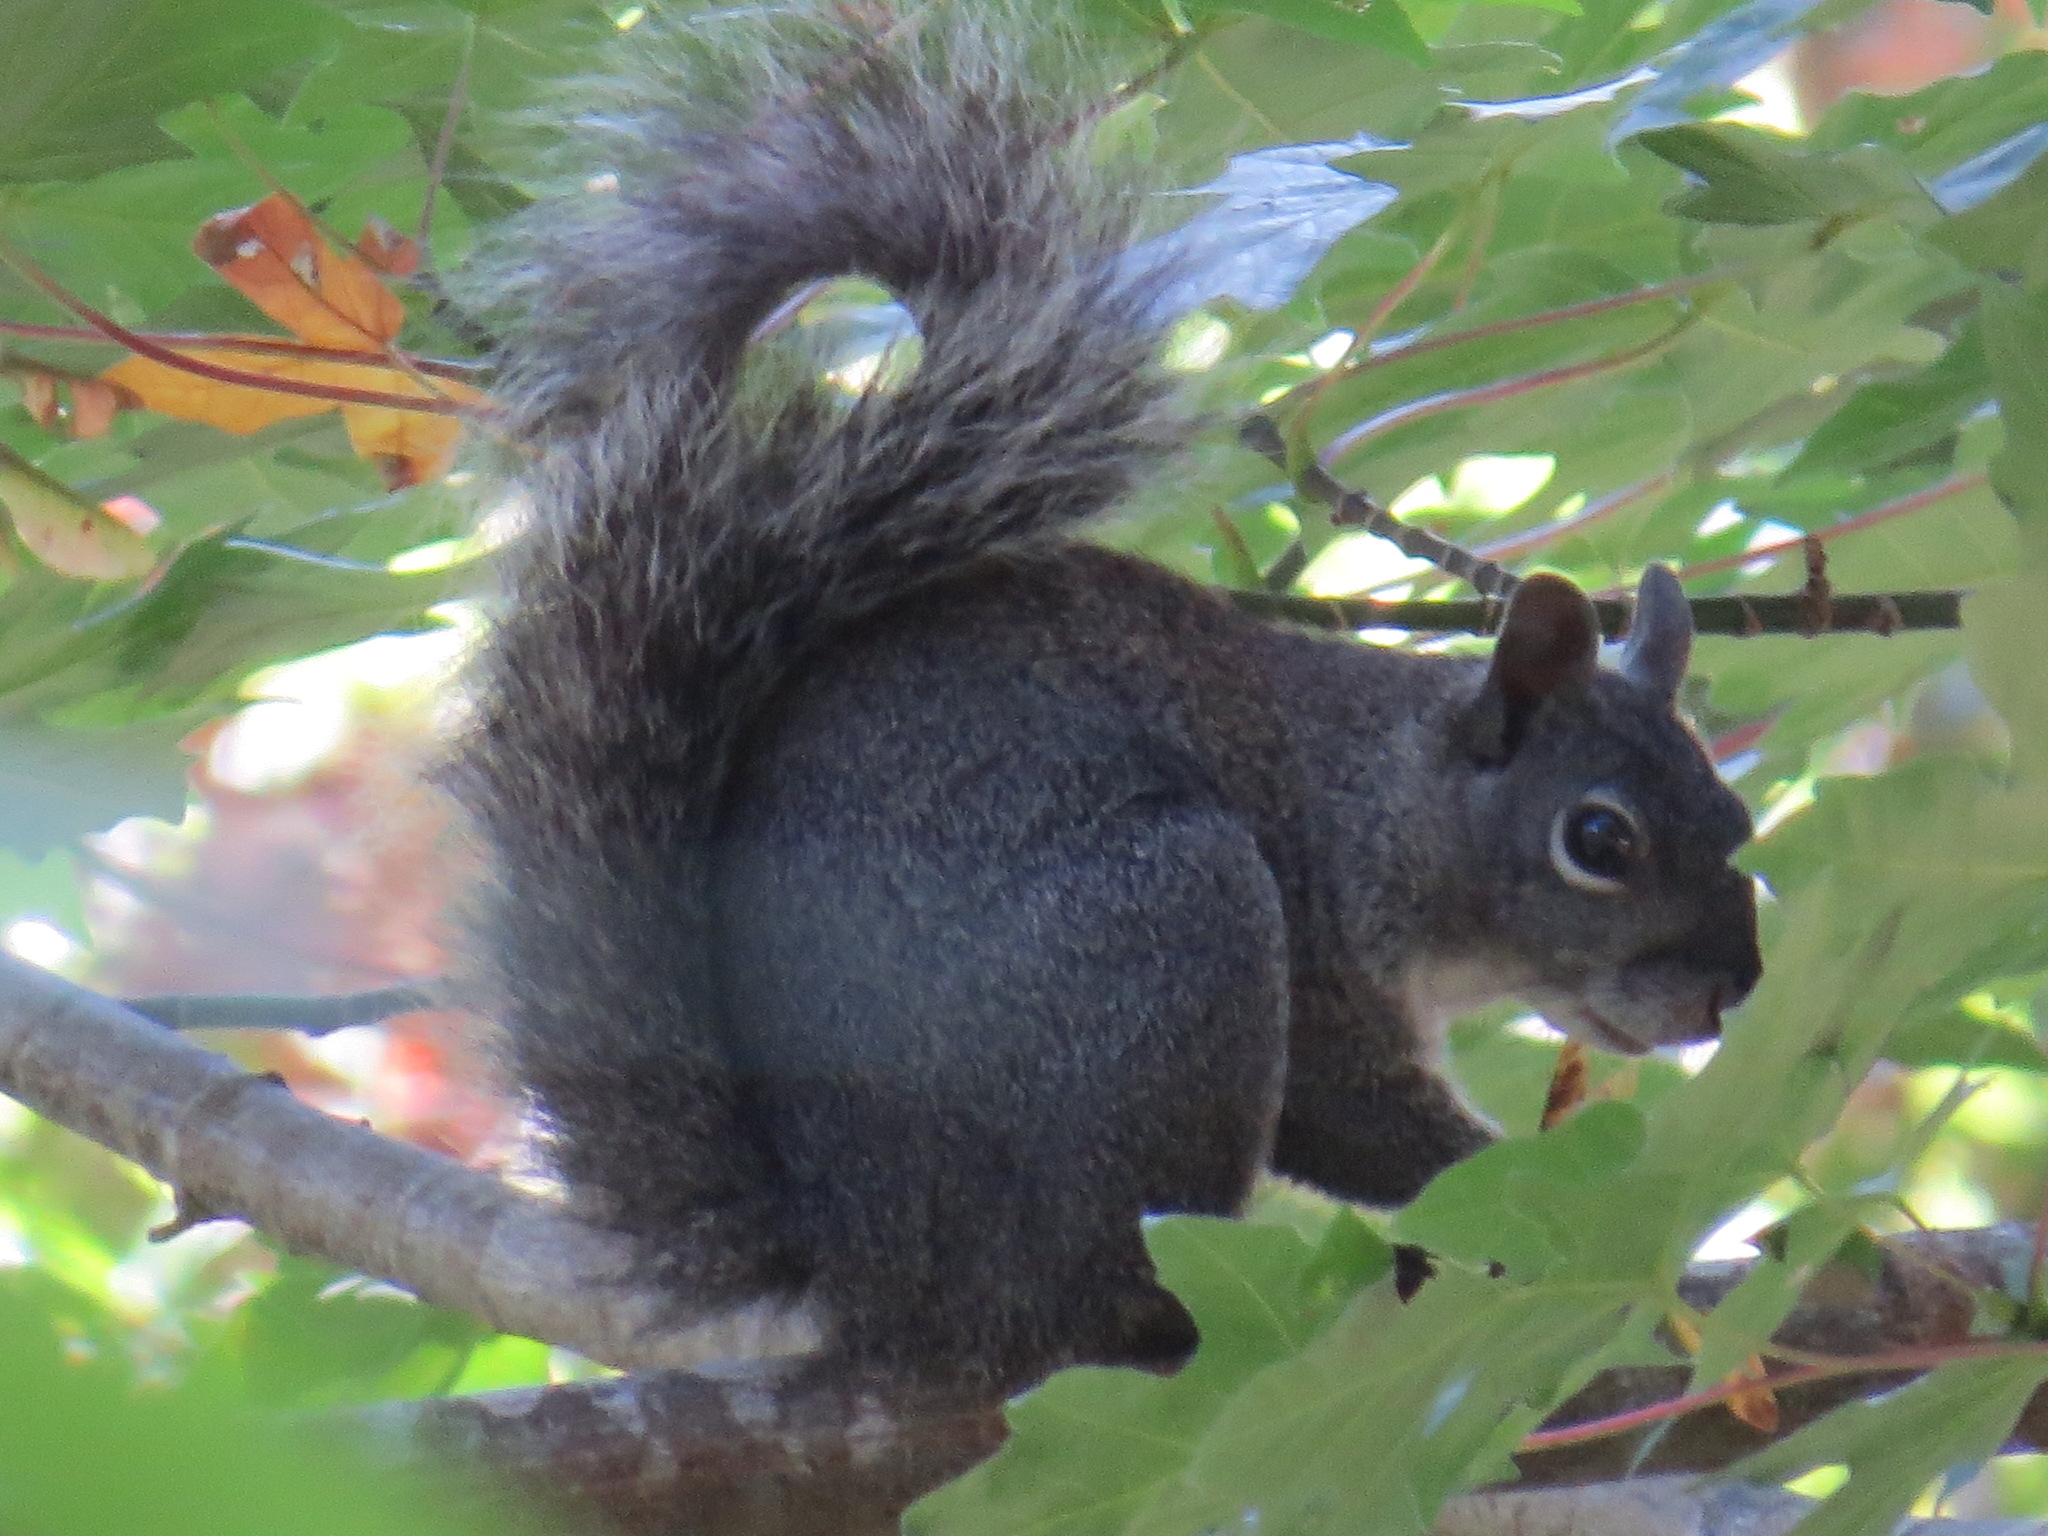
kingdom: Animalia
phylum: Chordata
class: Mammalia
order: Rodentia
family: Sciuridae
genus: Sciurus
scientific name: Sciurus griseus
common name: Western gray squirrel
